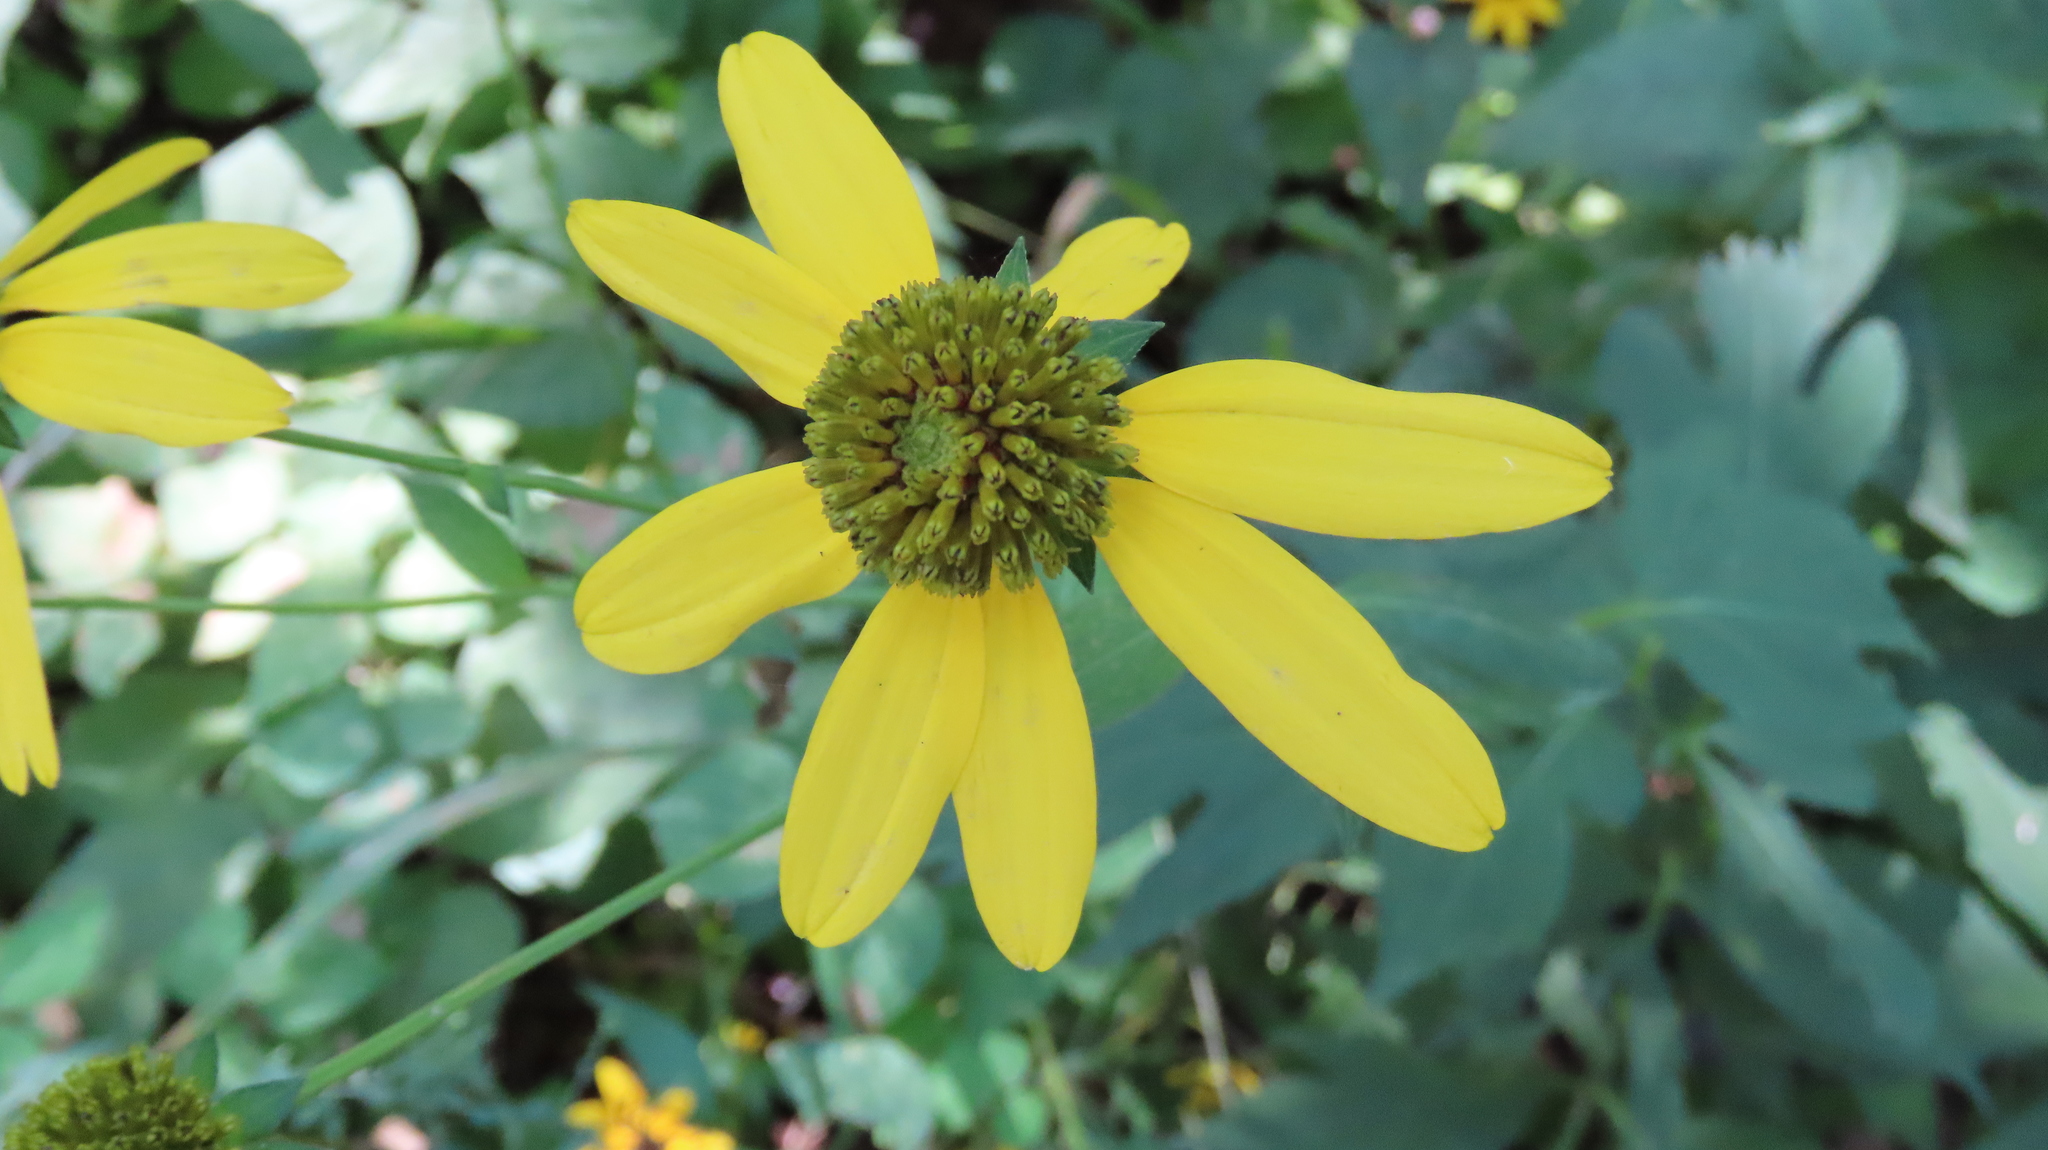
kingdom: Plantae
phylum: Tracheophyta
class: Magnoliopsida
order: Asterales
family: Asteraceae
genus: Rudbeckia
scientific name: Rudbeckia laciniata
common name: Coneflower
